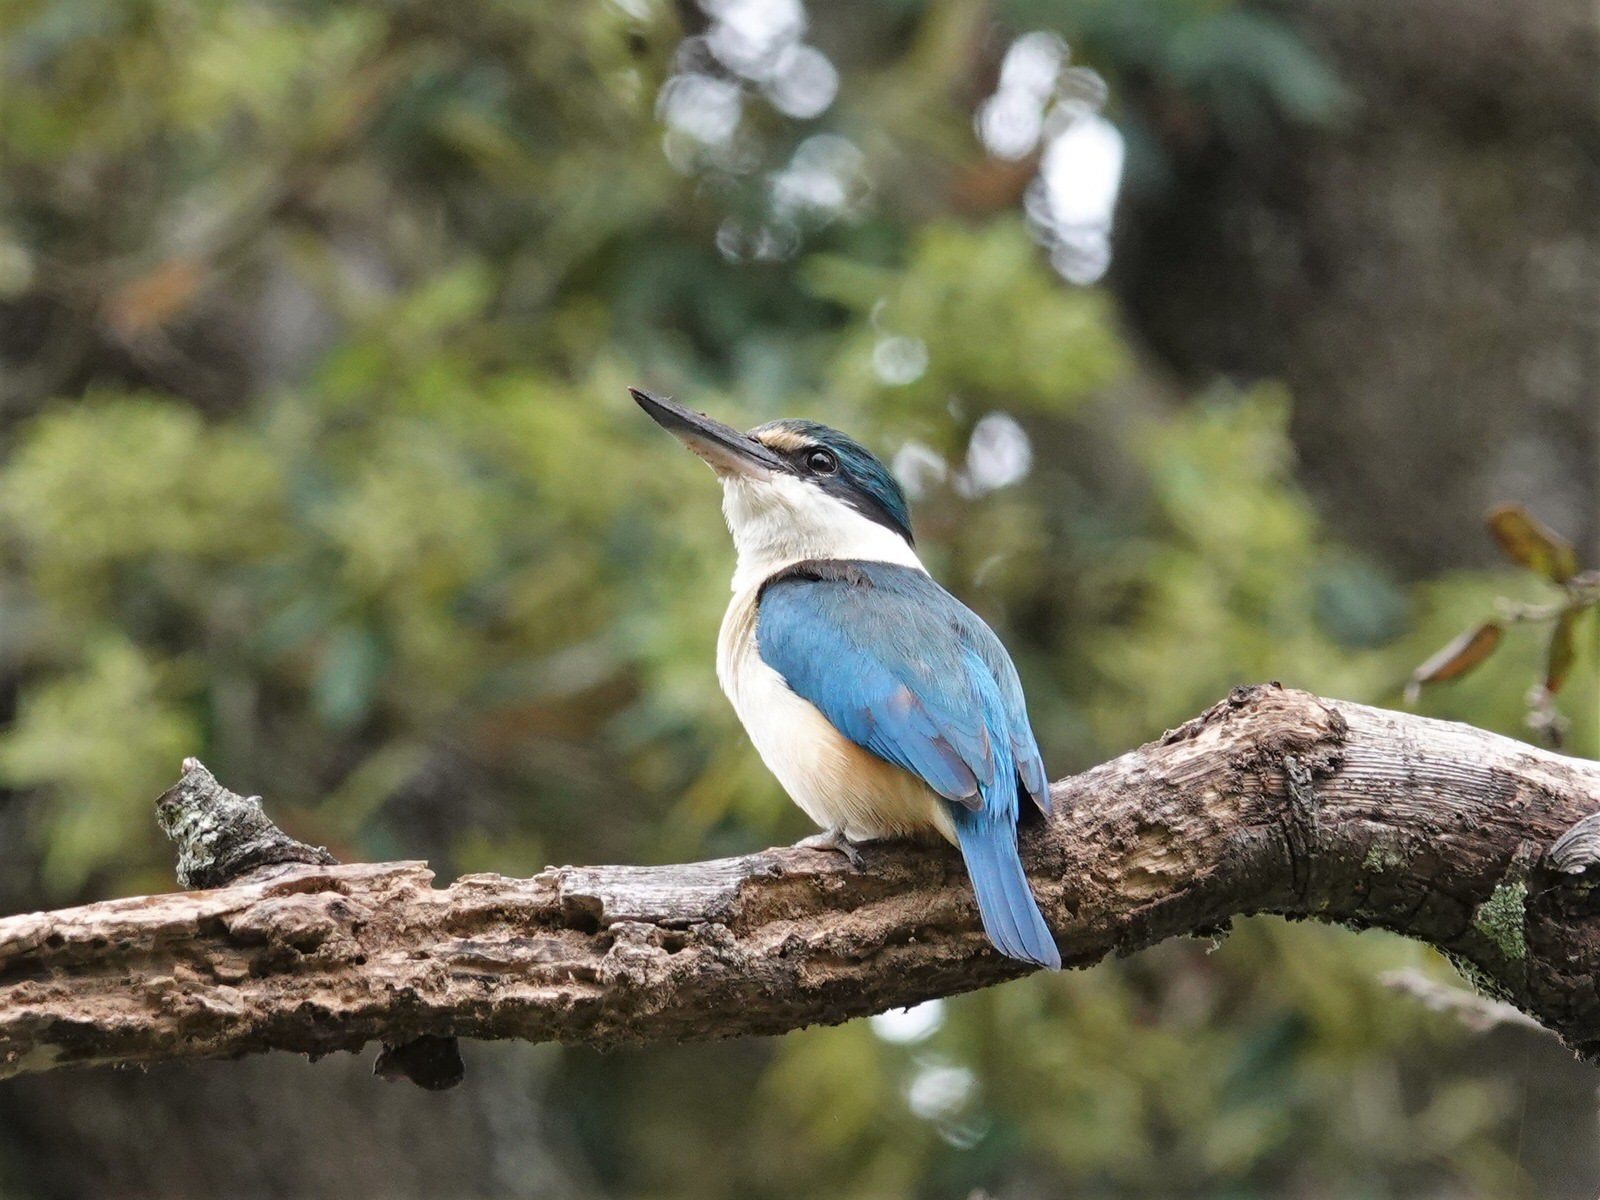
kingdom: Animalia
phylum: Chordata
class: Aves
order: Coraciiformes
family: Alcedinidae
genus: Todiramphus
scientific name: Todiramphus sanctus
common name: Sacred kingfisher
